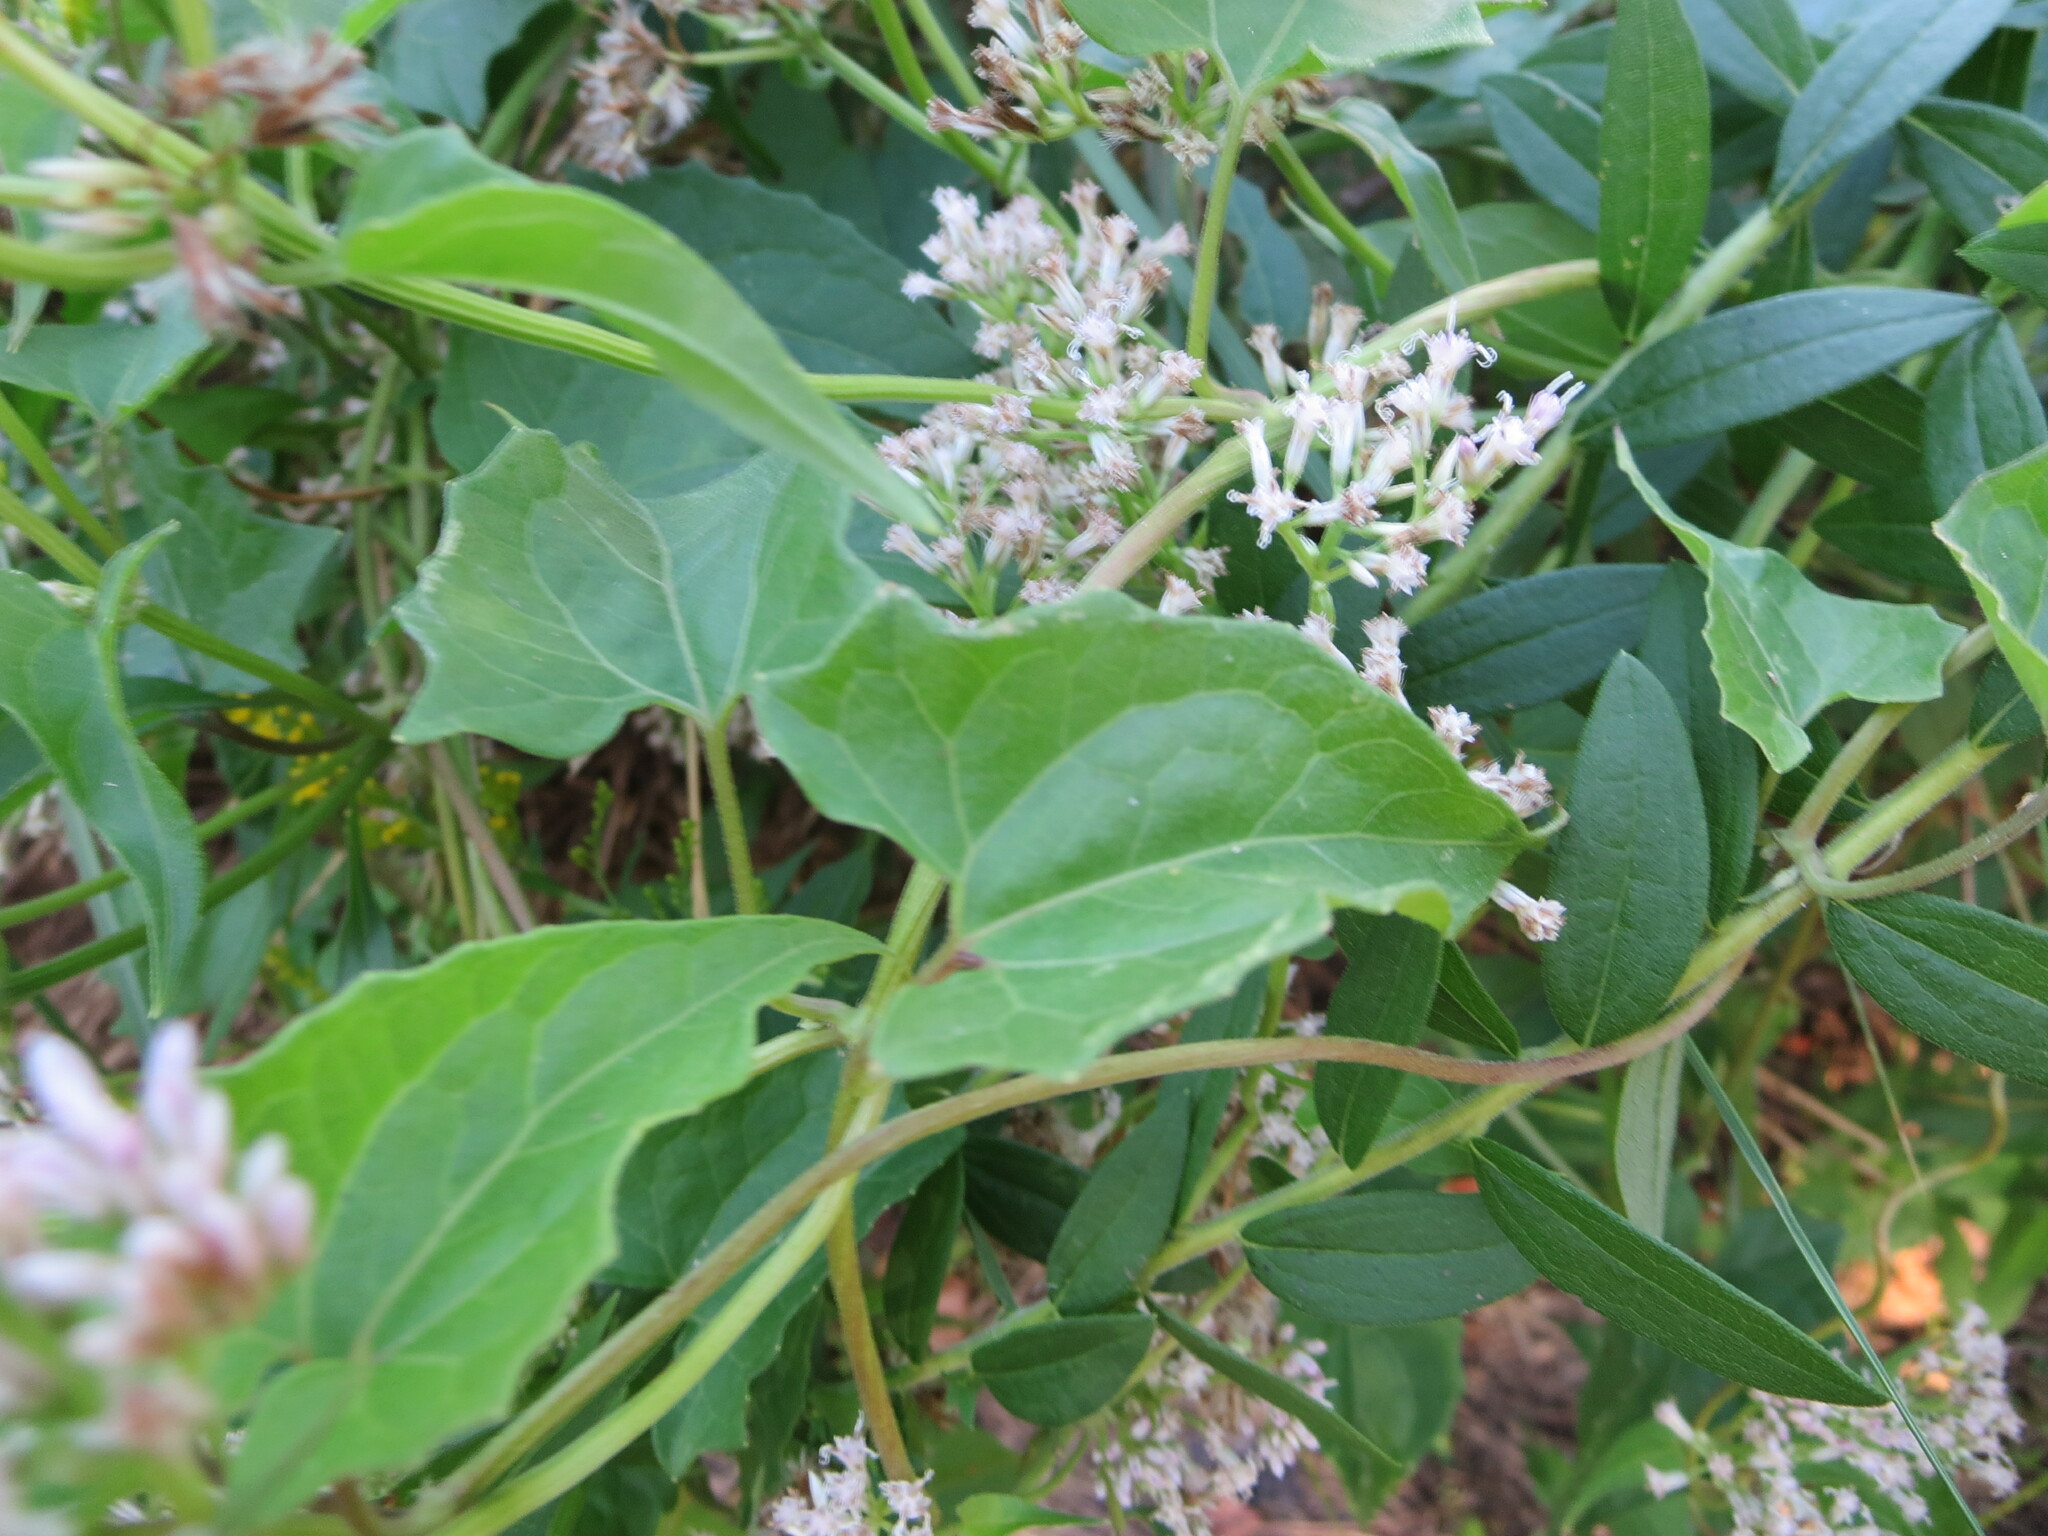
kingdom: Plantae
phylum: Tracheophyta
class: Magnoliopsida
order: Asterales
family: Asteraceae
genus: Mikania
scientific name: Mikania scandens
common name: Climbing hempvine
